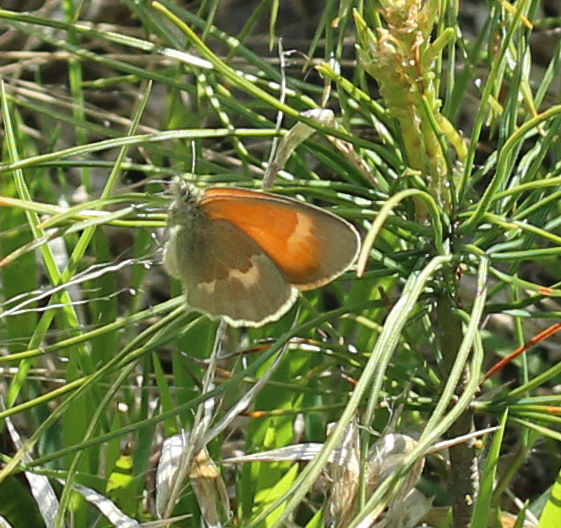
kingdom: Animalia
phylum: Arthropoda
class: Insecta
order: Lepidoptera
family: Nymphalidae
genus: Coenonympha
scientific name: Coenonympha california
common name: Common ringlet
